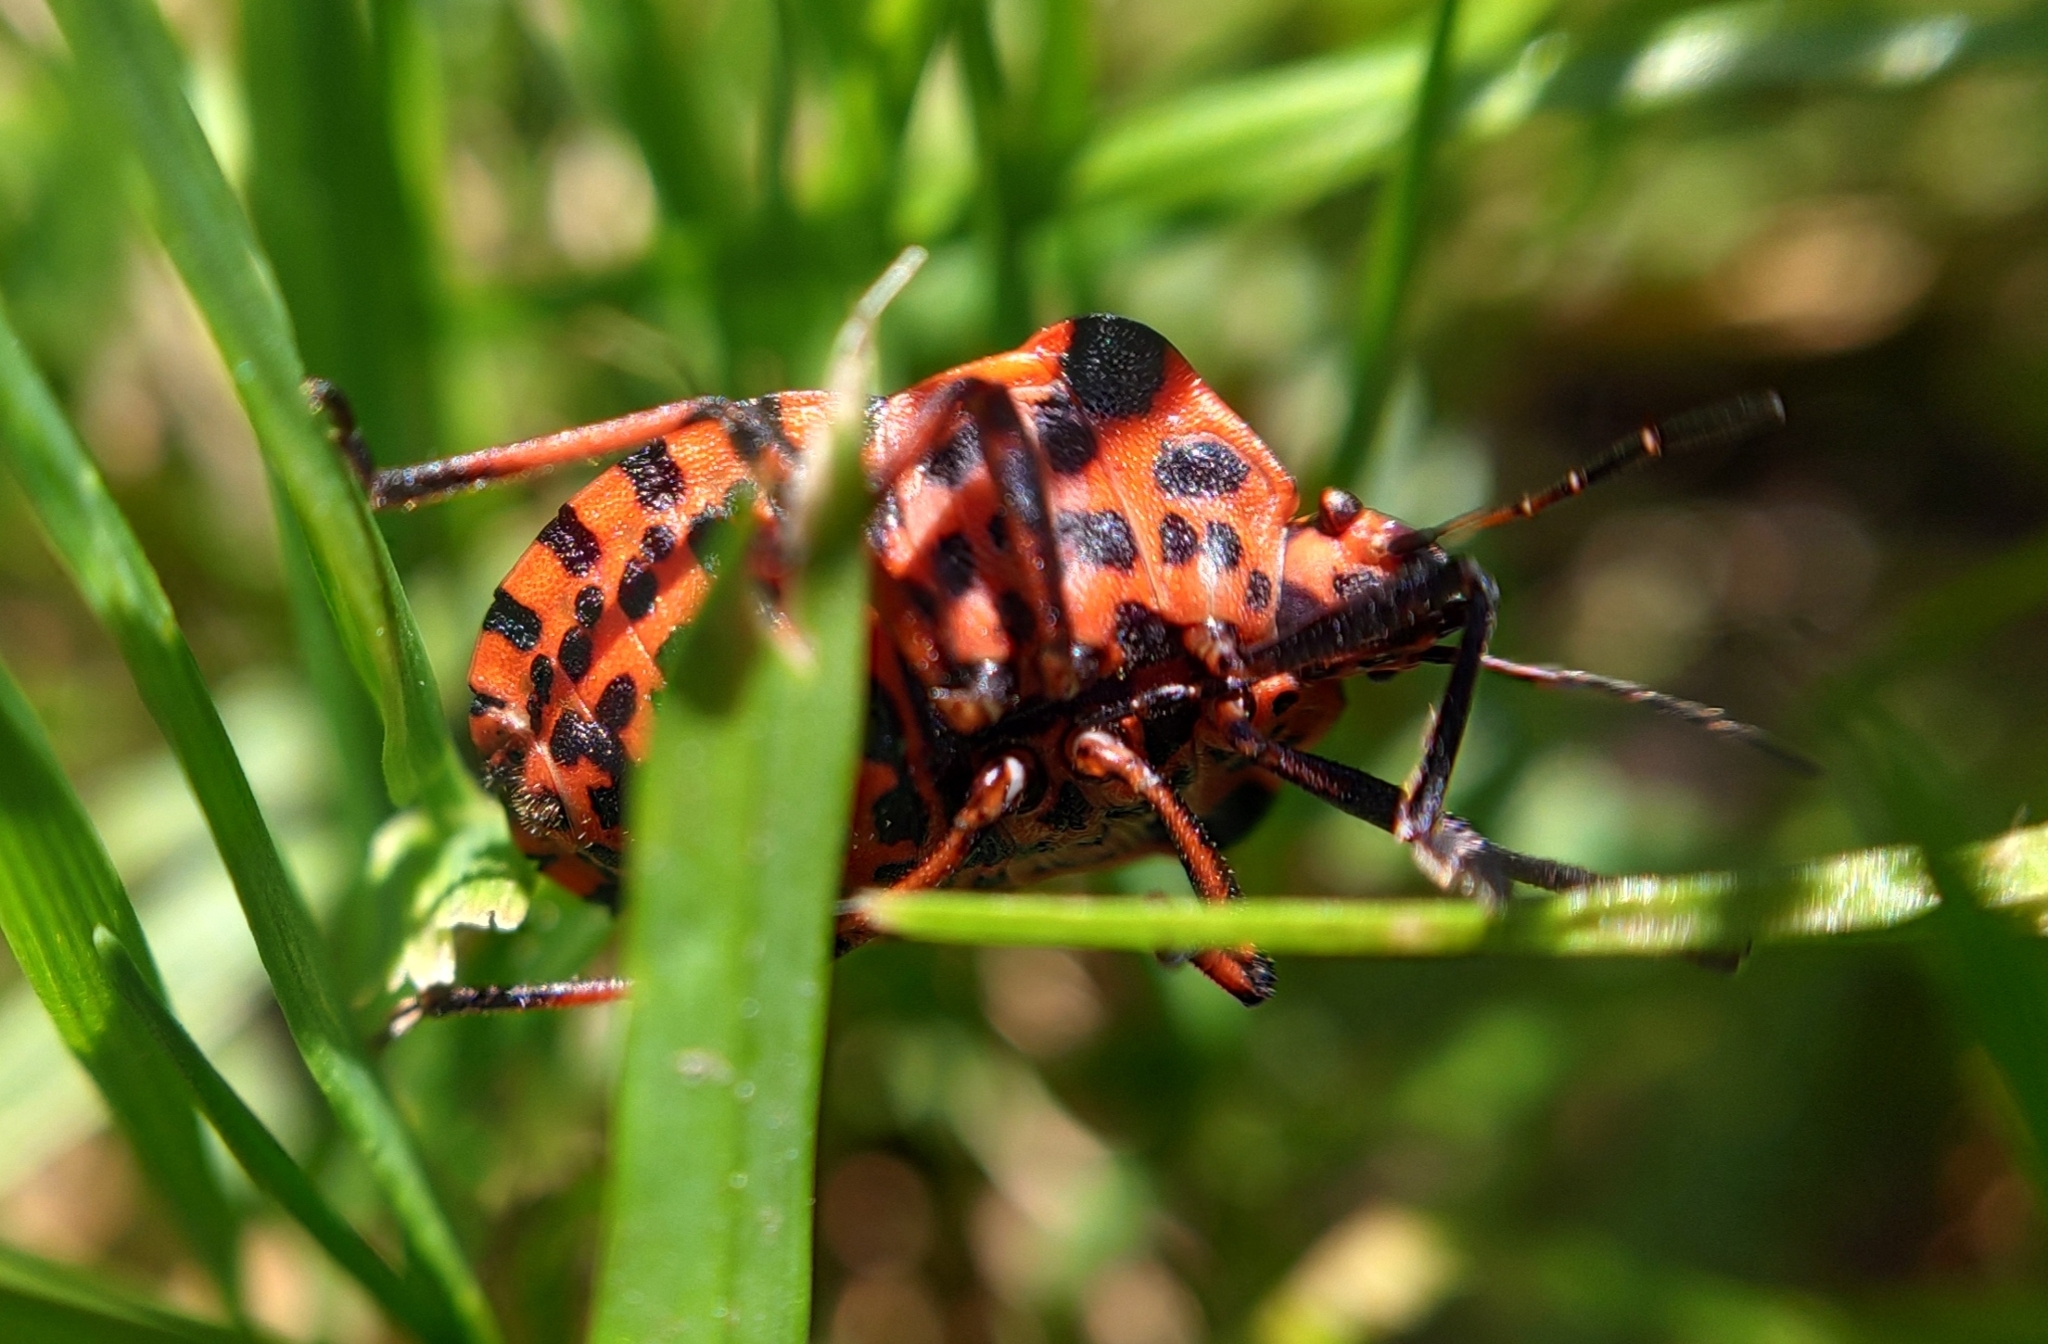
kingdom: Animalia
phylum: Arthropoda
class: Insecta
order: Hemiptera
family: Pentatomidae
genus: Graphosoma
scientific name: Graphosoma italicum
